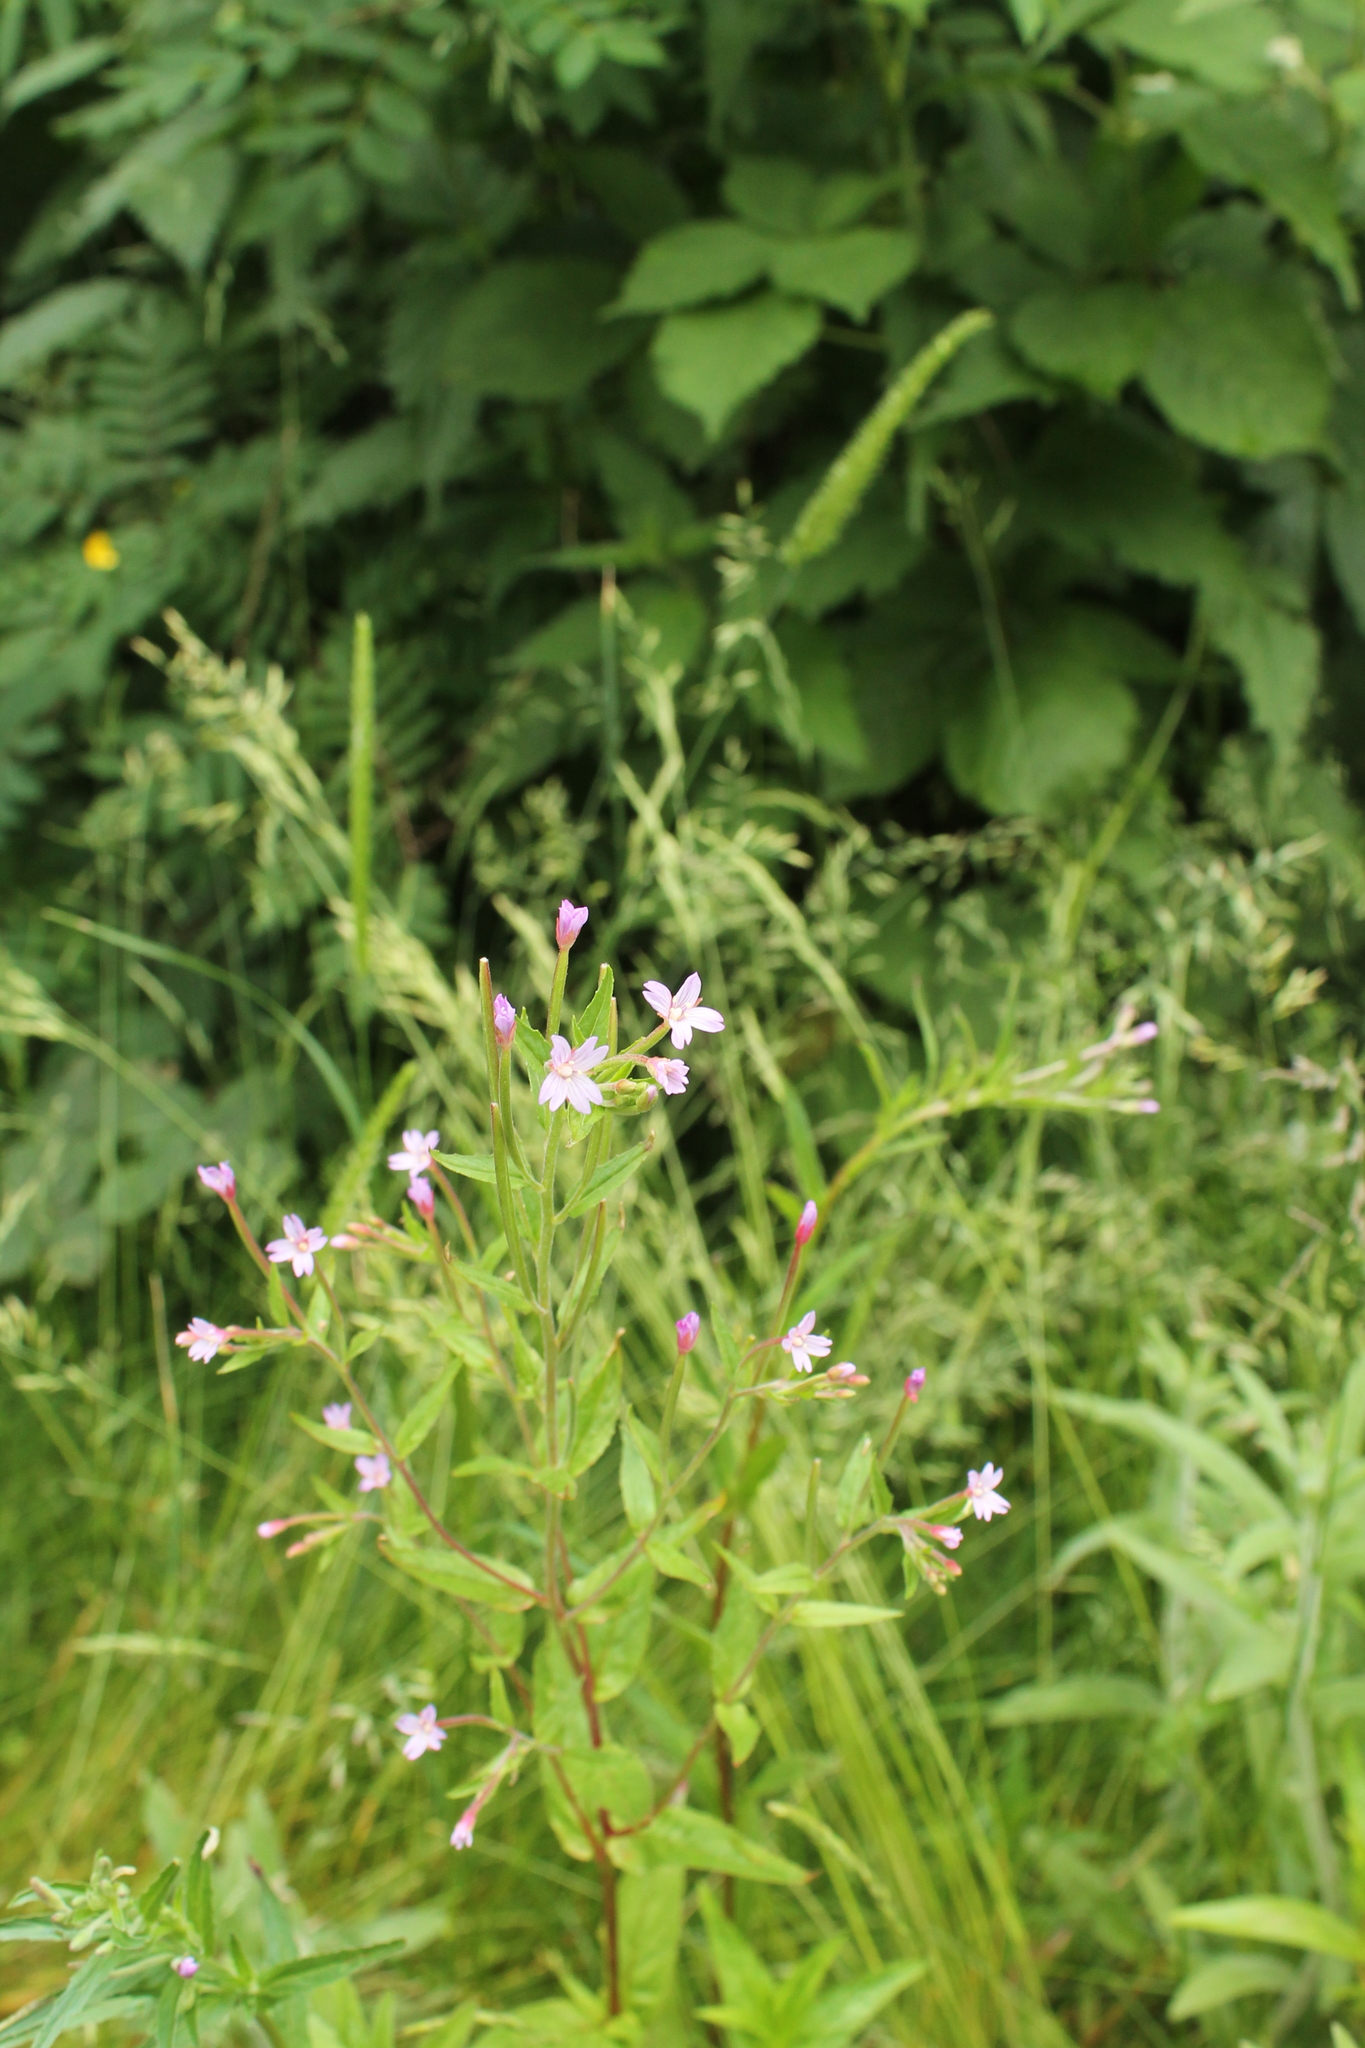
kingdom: Plantae
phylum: Tracheophyta
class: Magnoliopsida
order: Myrtales
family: Onagraceae
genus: Epilobium
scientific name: Epilobium ciliatum
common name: American willowherb
